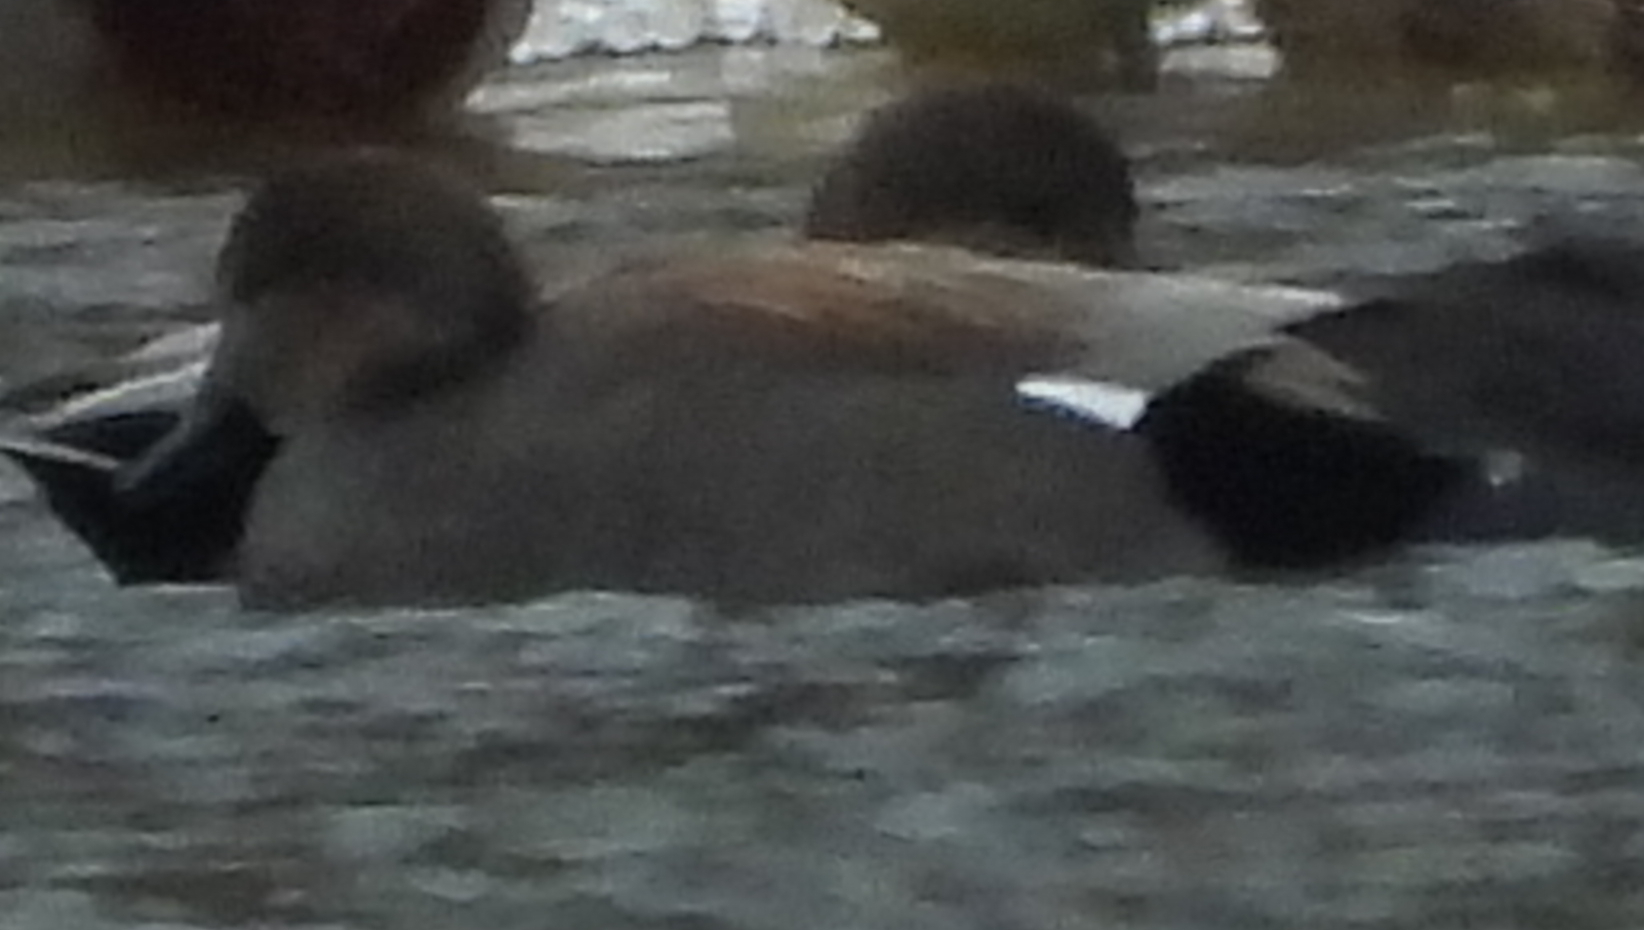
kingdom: Animalia
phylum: Chordata
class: Aves
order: Anseriformes
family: Anatidae
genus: Mareca
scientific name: Mareca strepera
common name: Gadwall
